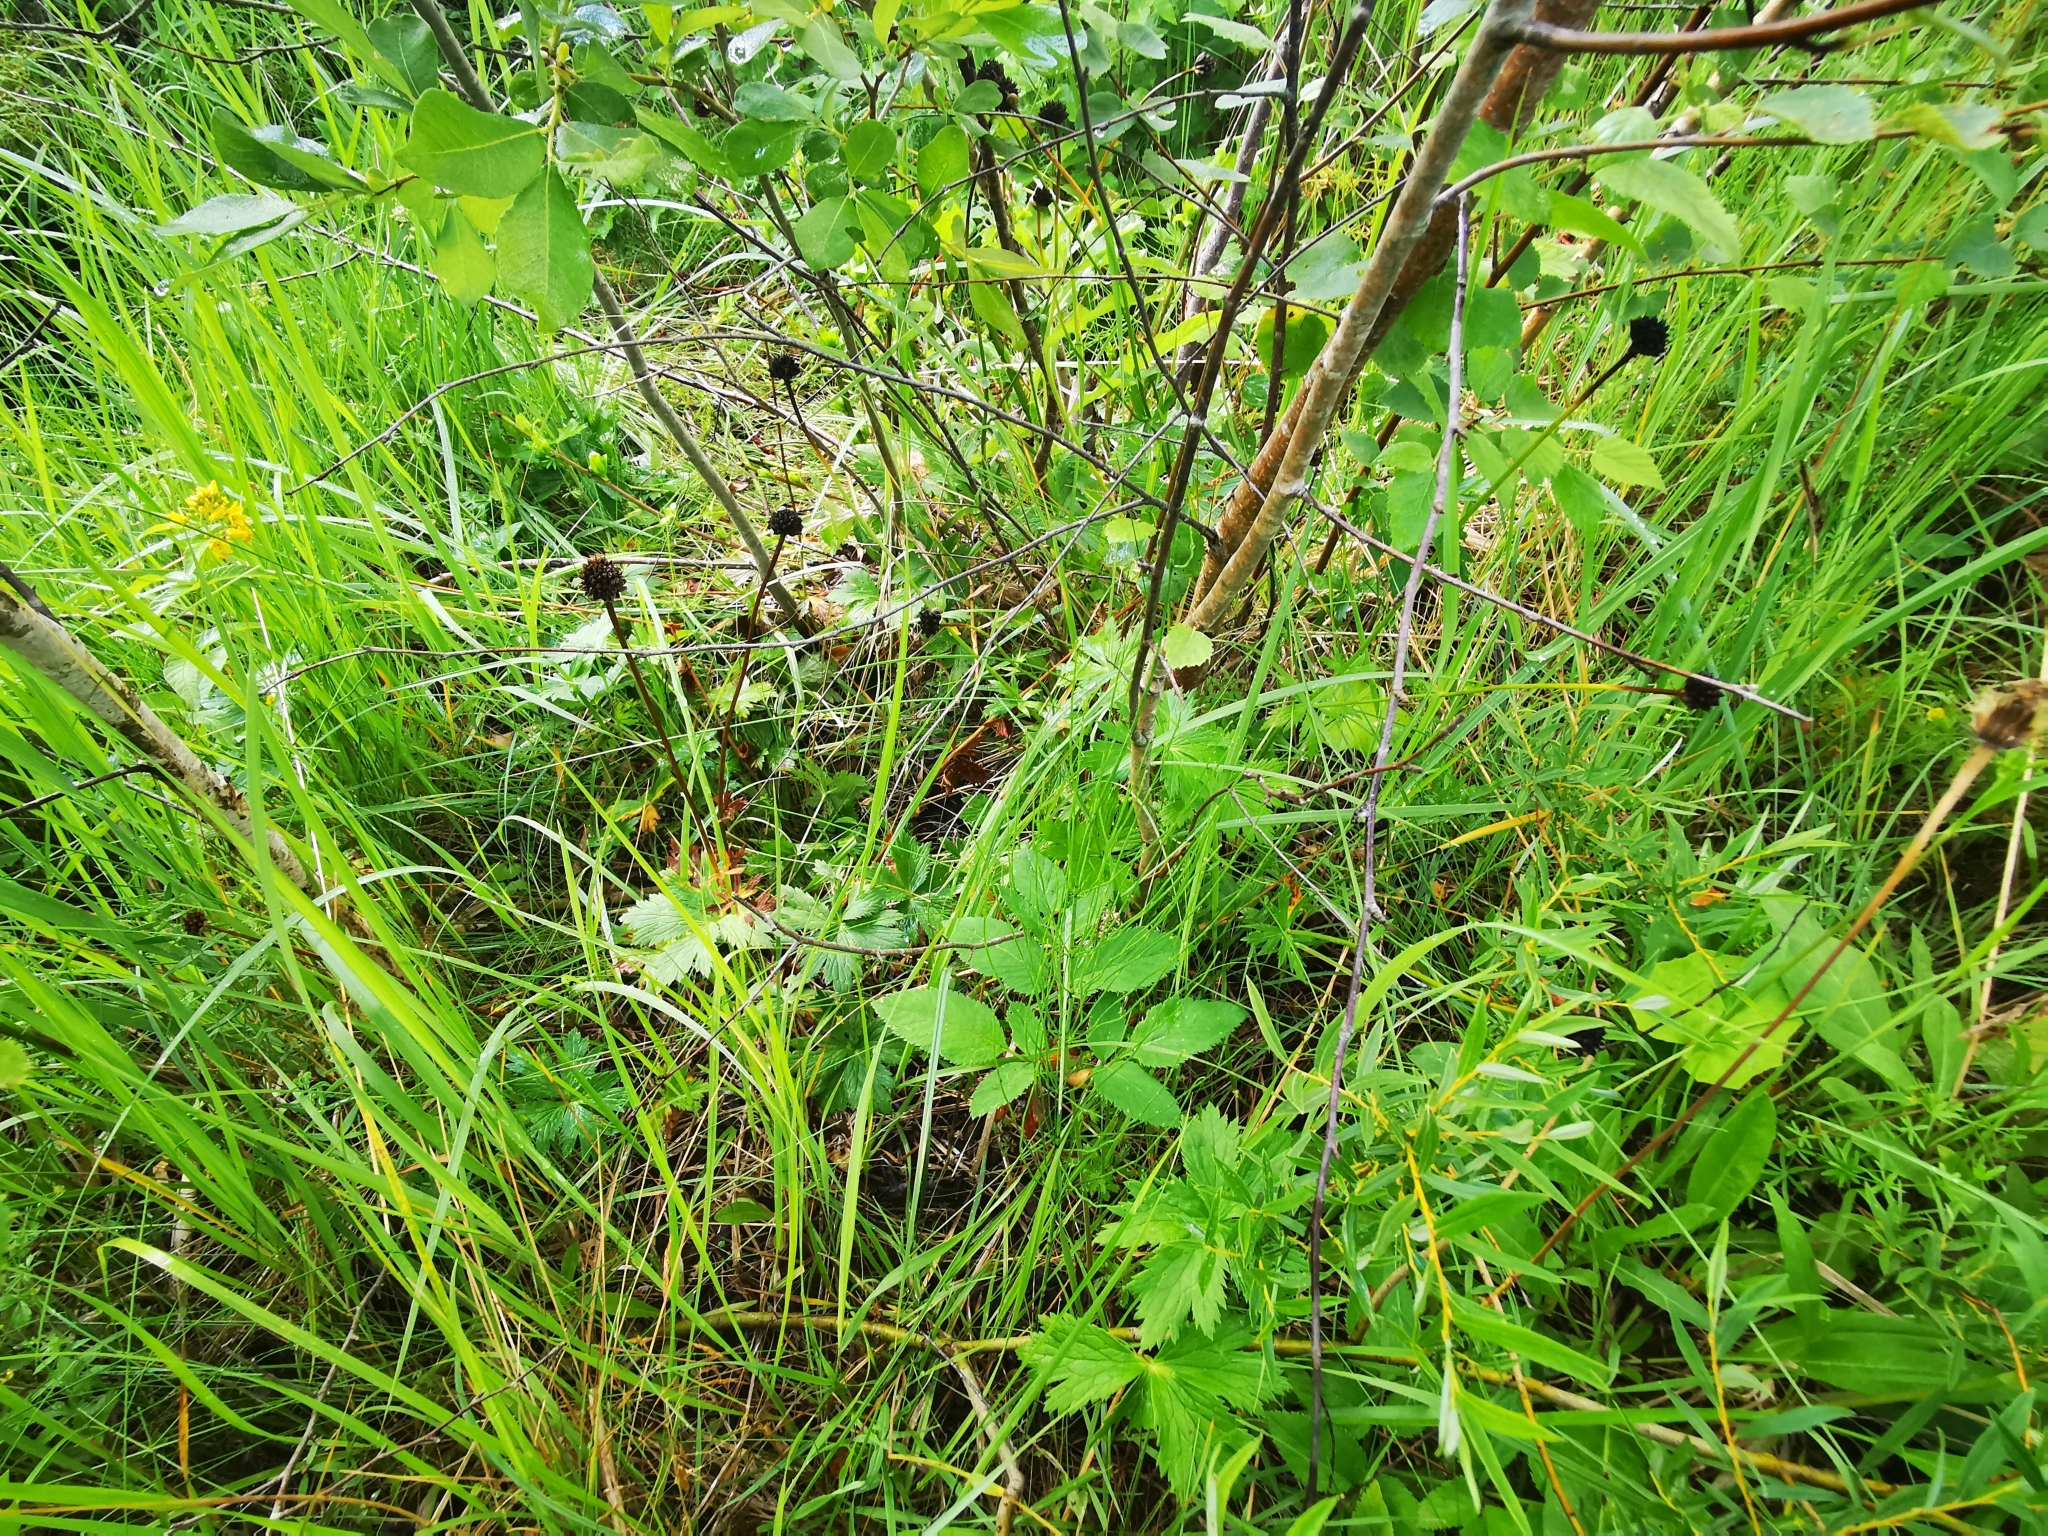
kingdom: Plantae
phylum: Tracheophyta
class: Magnoliopsida
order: Ranunculales
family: Ranunculaceae
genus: Trollius
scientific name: Trollius europaeus
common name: European globeflower
